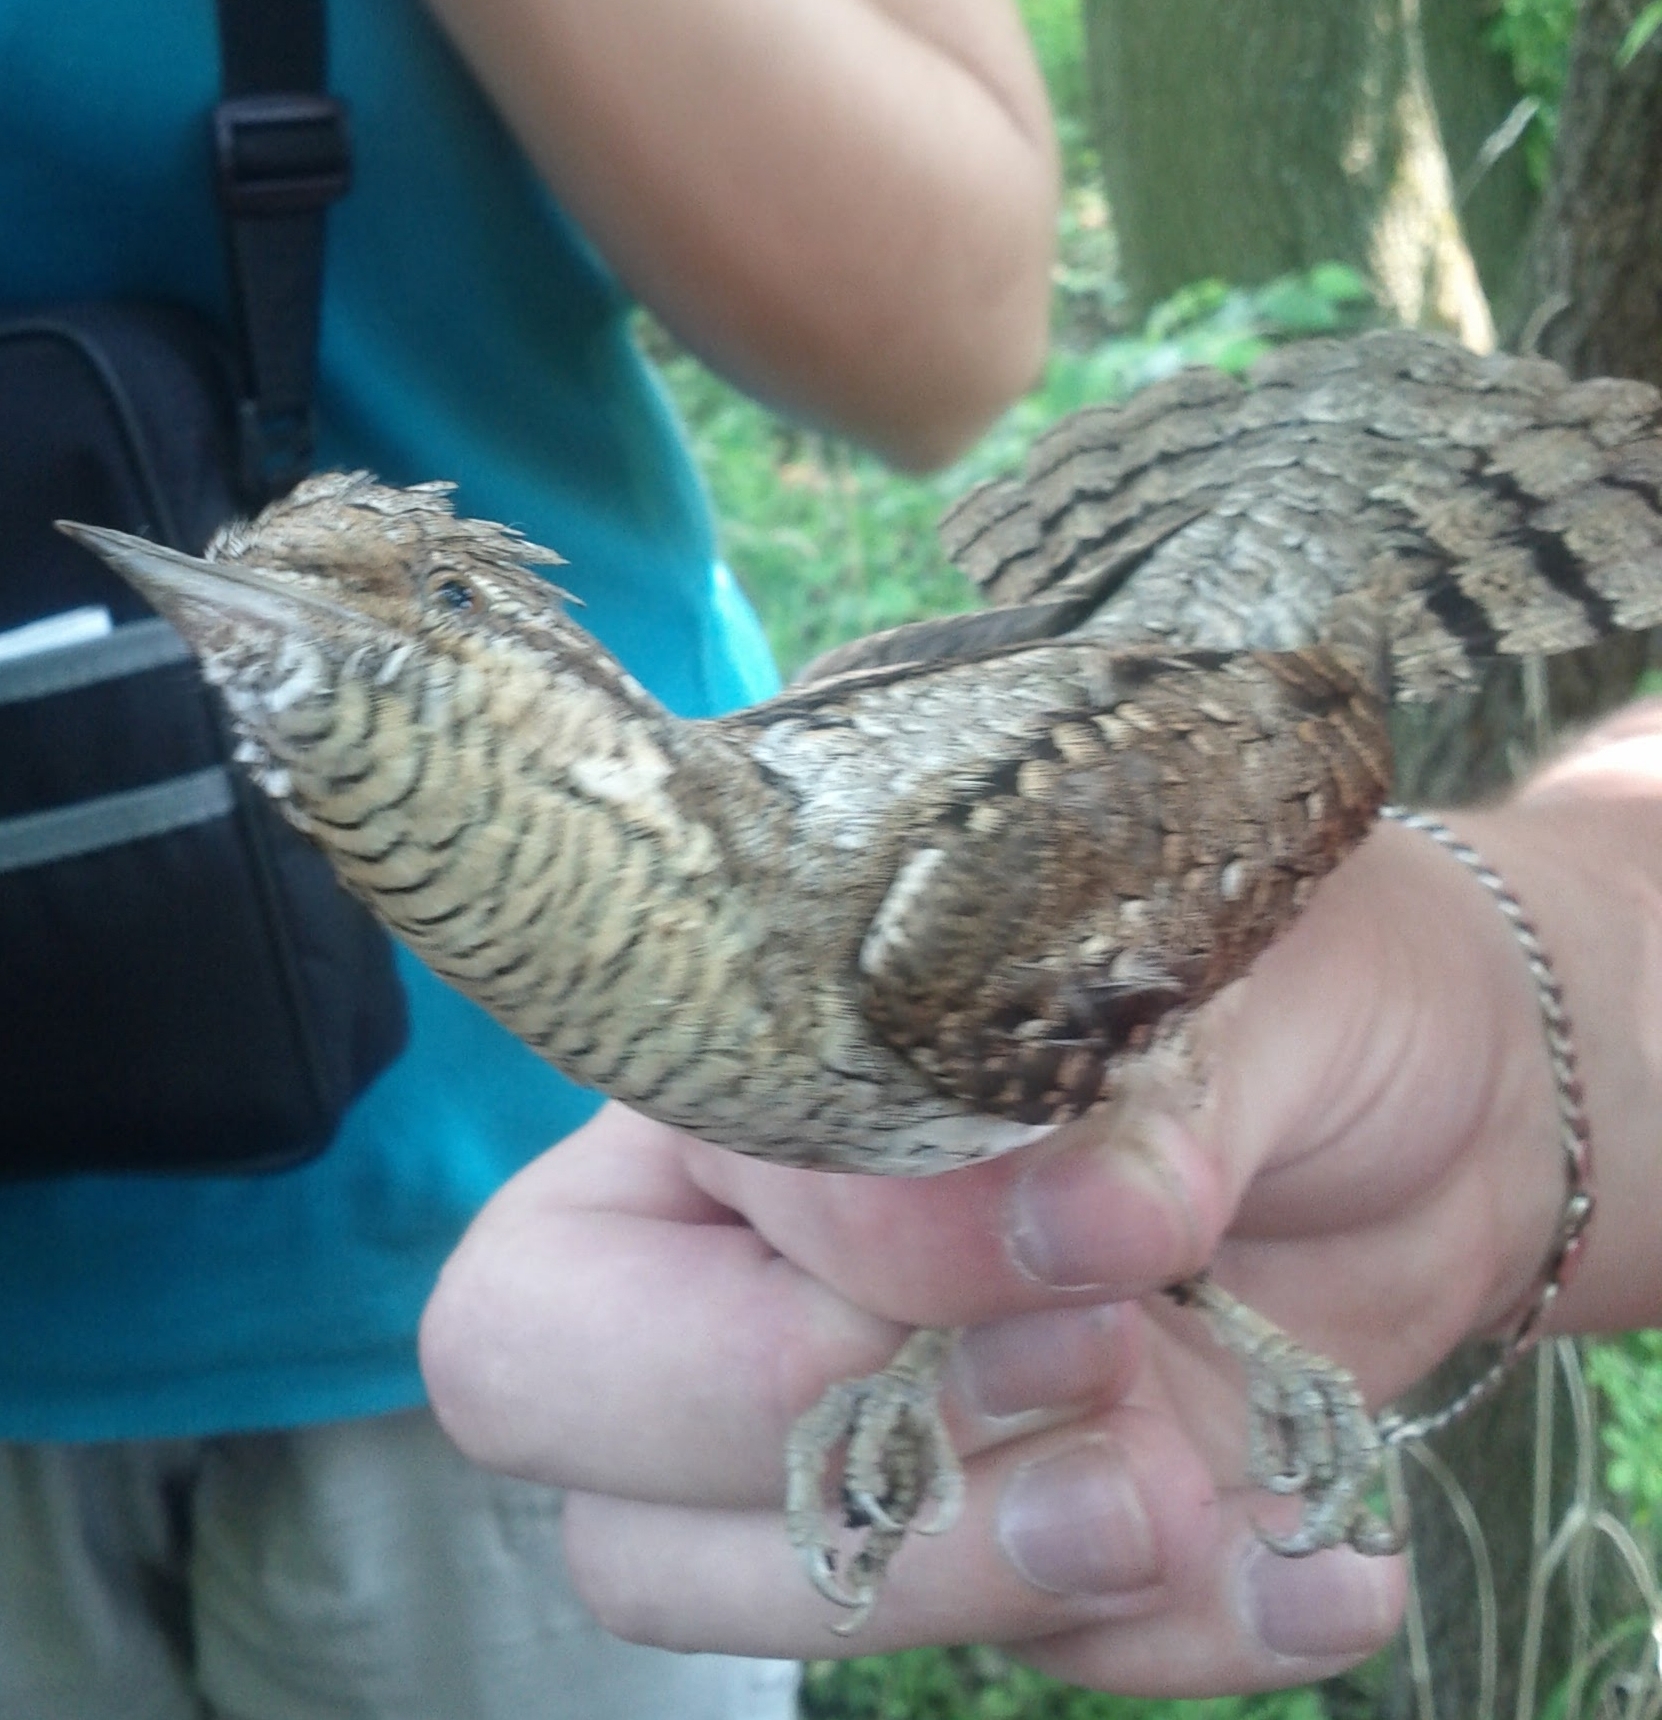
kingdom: Animalia
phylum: Chordata
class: Aves
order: Piciformes
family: Picidae
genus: Jynx
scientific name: Jynx torquilla
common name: Eurasian wryneck
